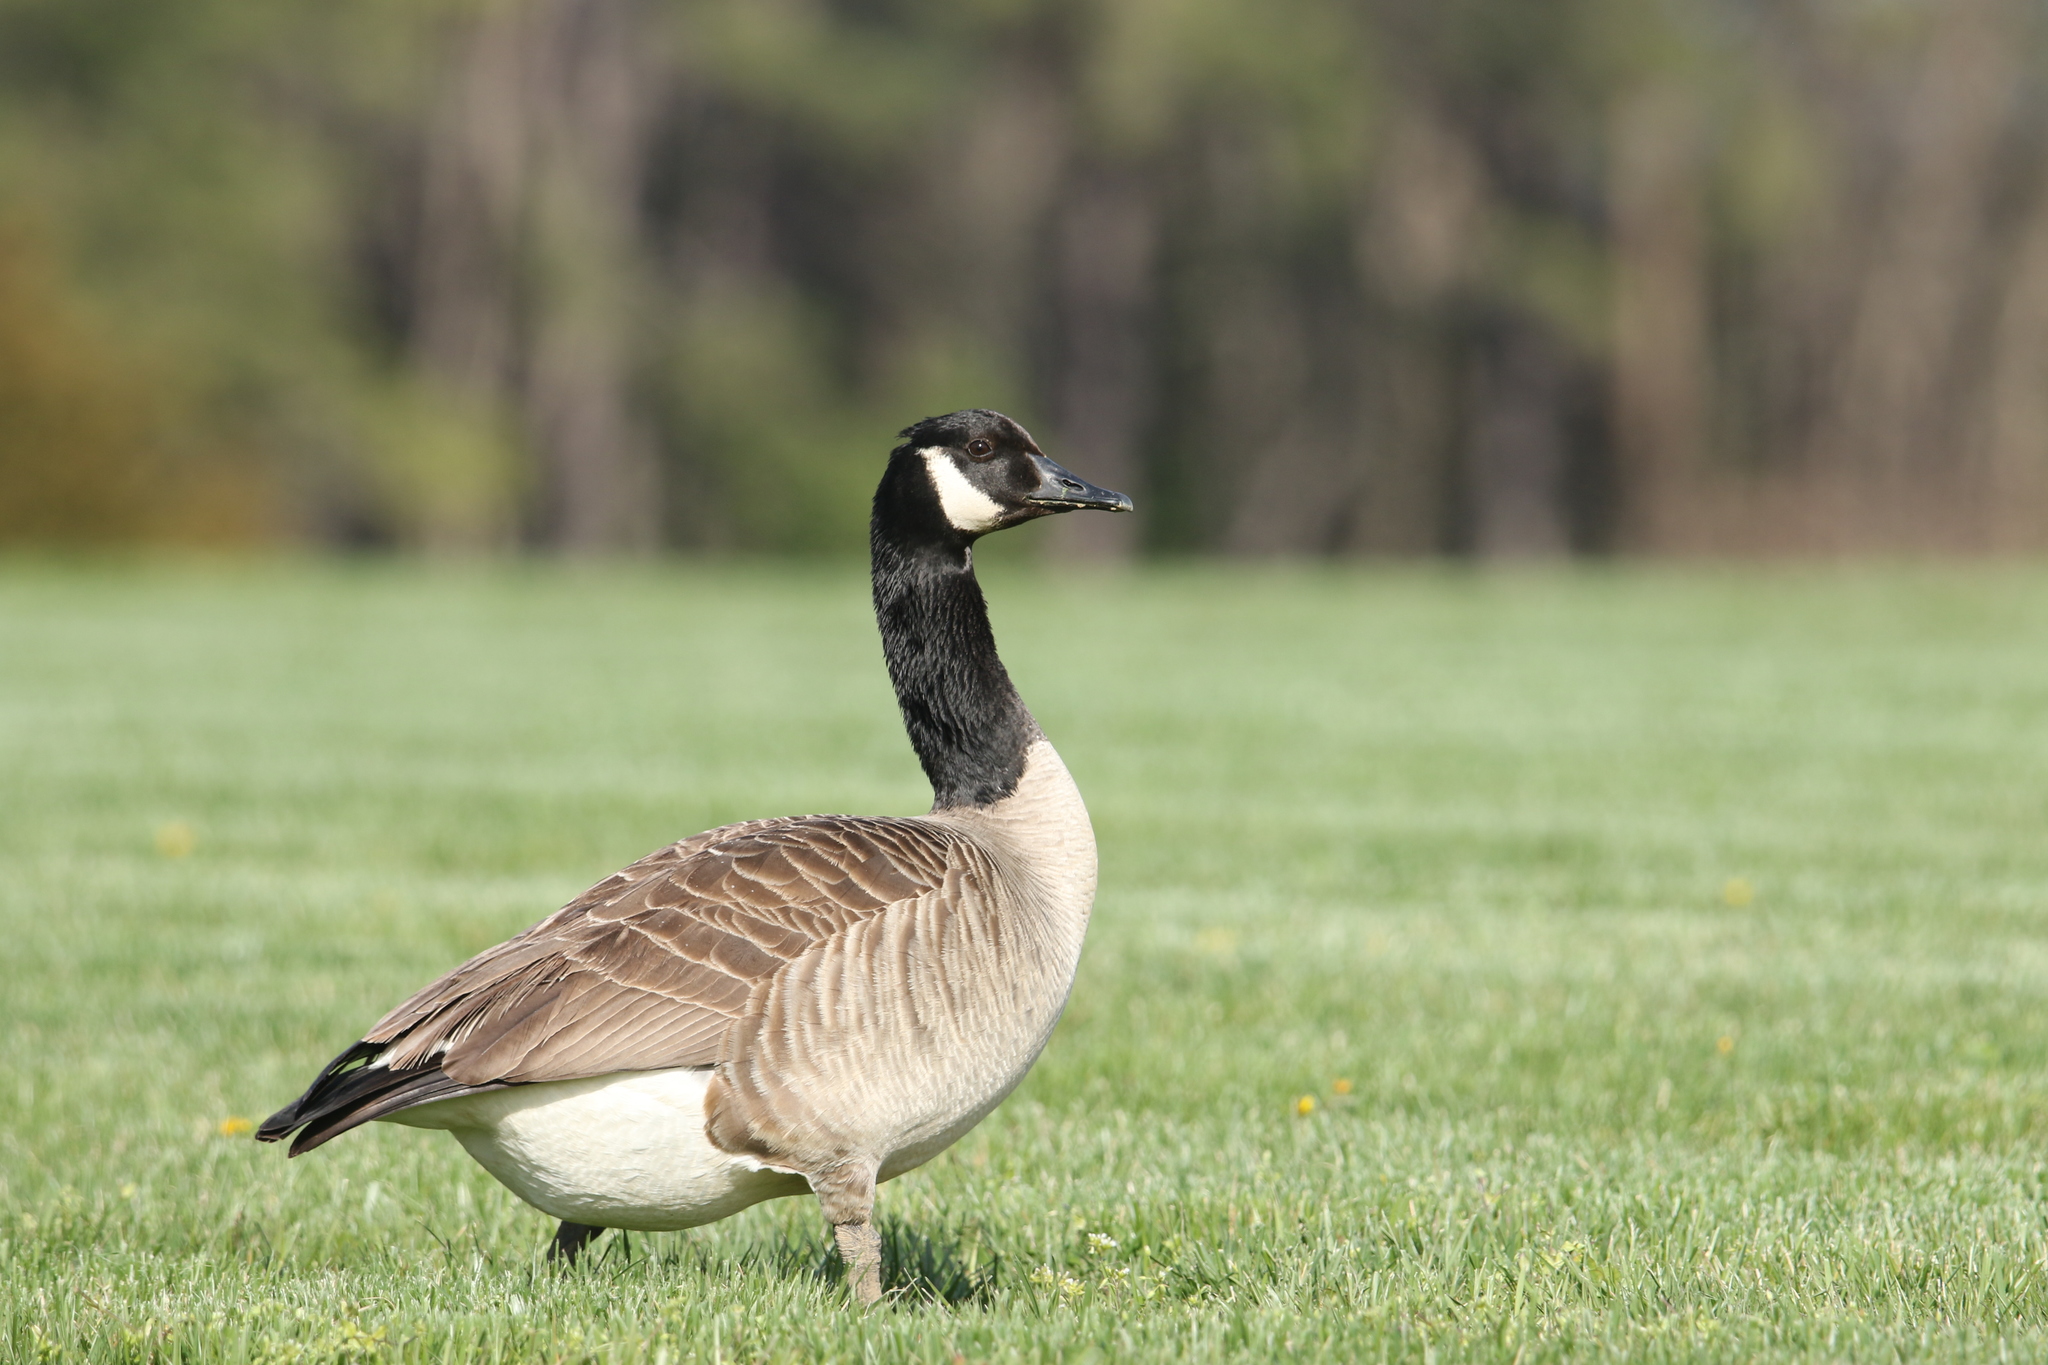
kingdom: Animalia
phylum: Chordata
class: Aves
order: Anseriformes
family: Anatidae
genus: Branta
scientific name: Branta canadensis
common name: Canada goose
